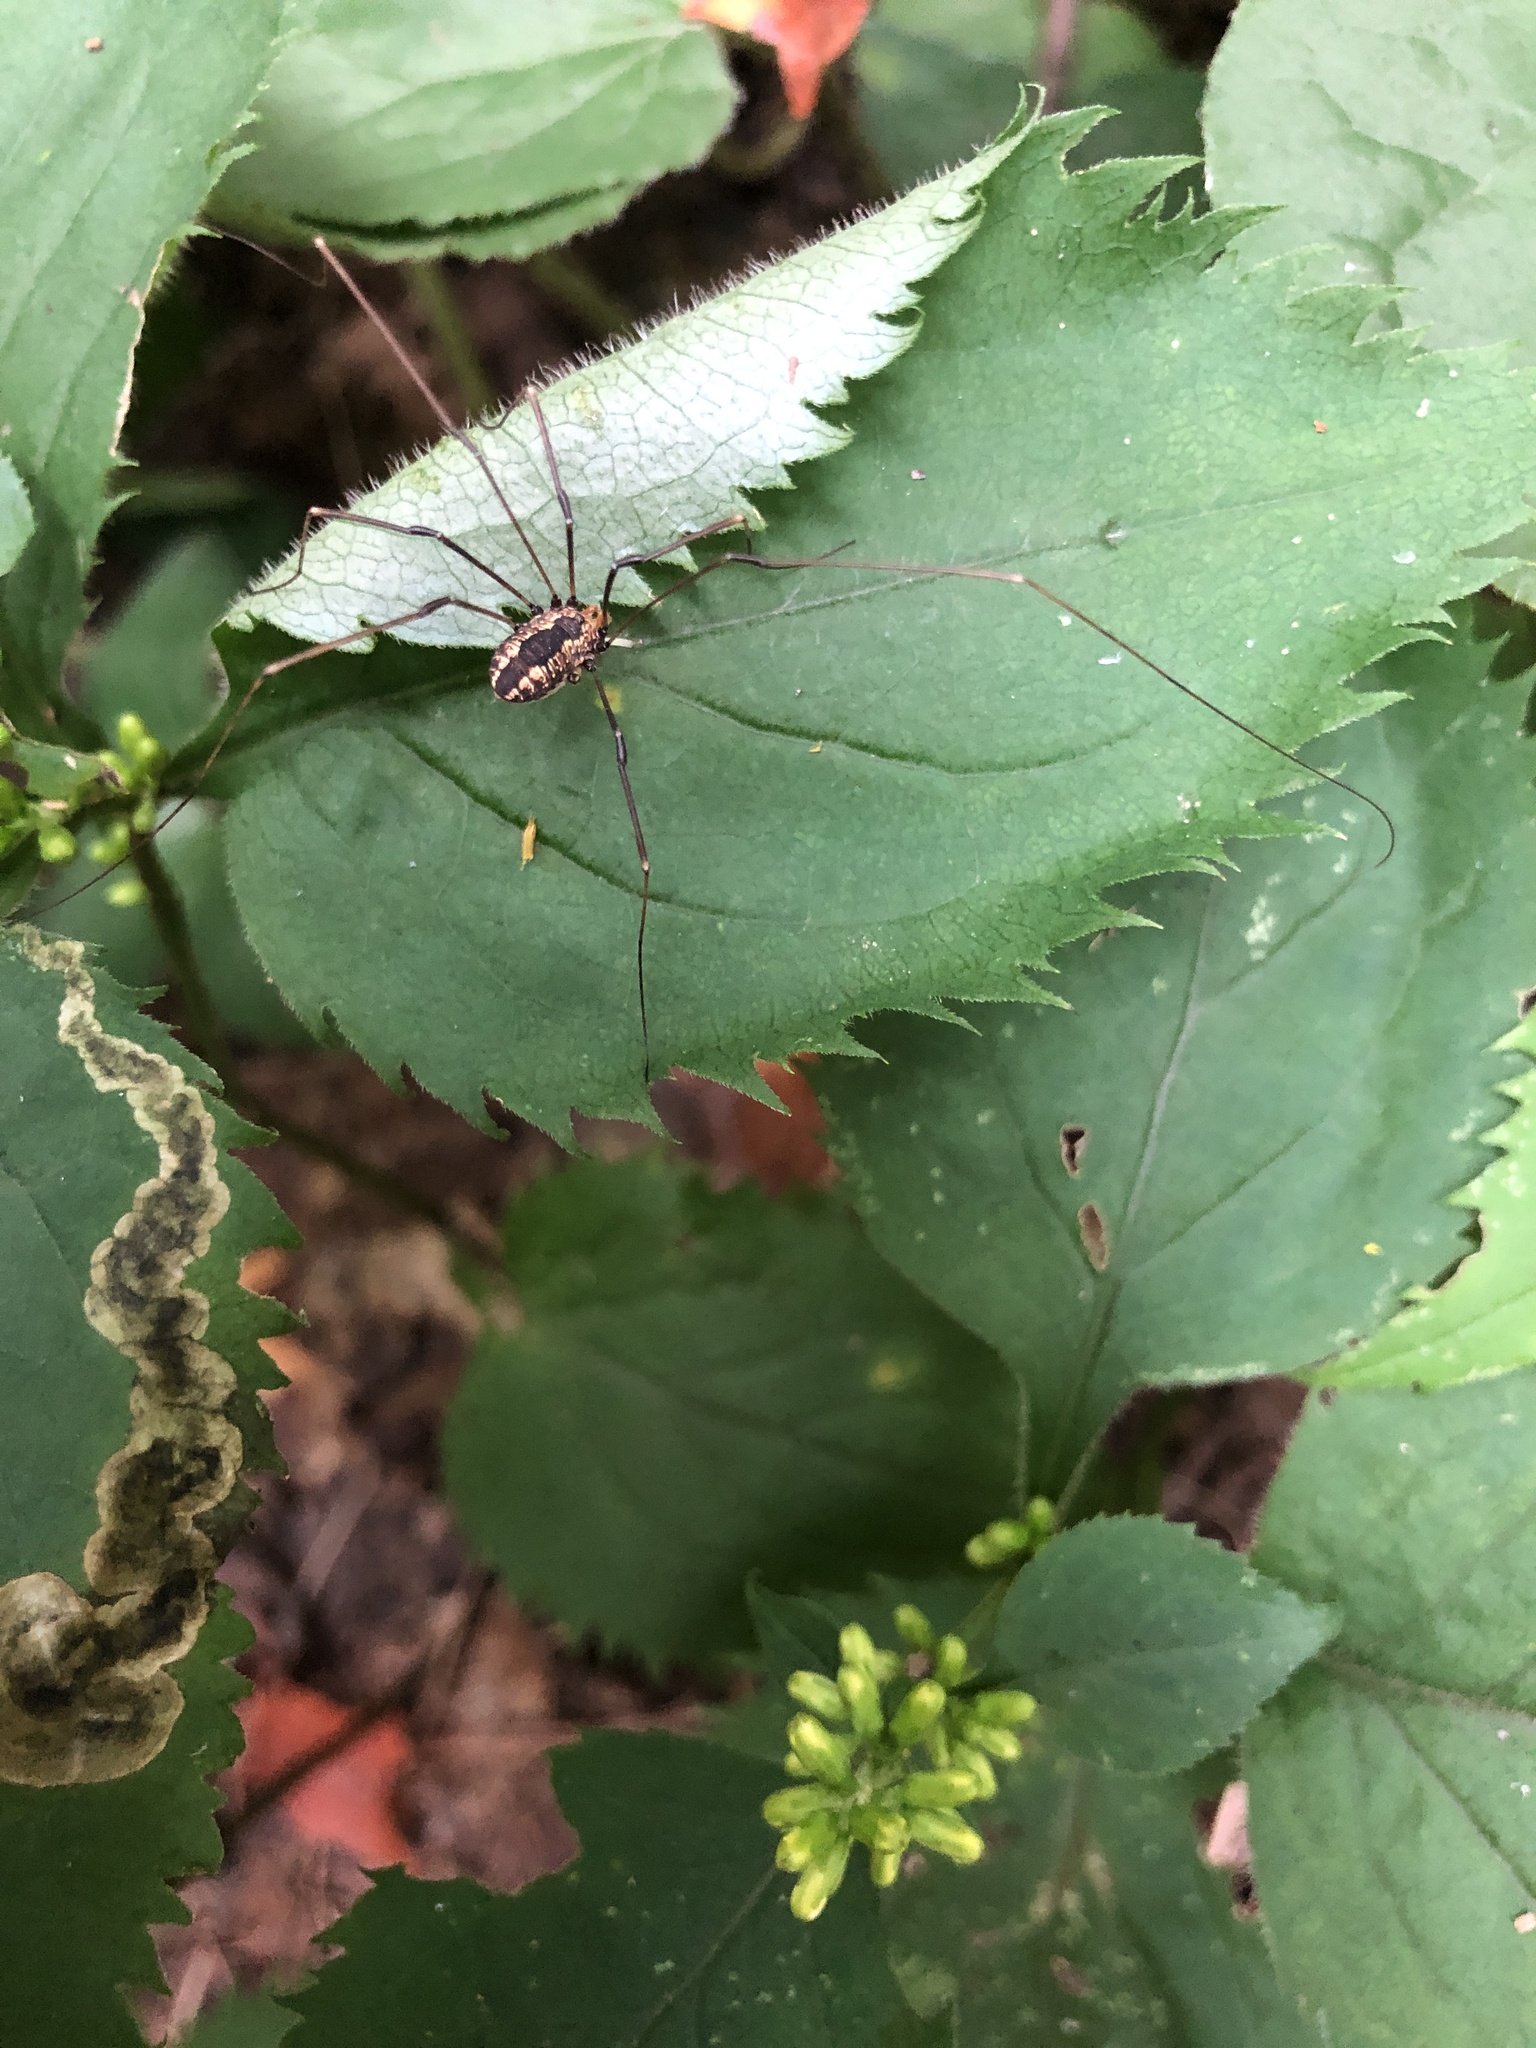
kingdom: Animalia
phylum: Arthropoda
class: Arachnida
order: Opiliones
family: Sclerosomatidae
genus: Leiobunum
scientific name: Leiobunum vittatum
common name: Eastern harvestman
